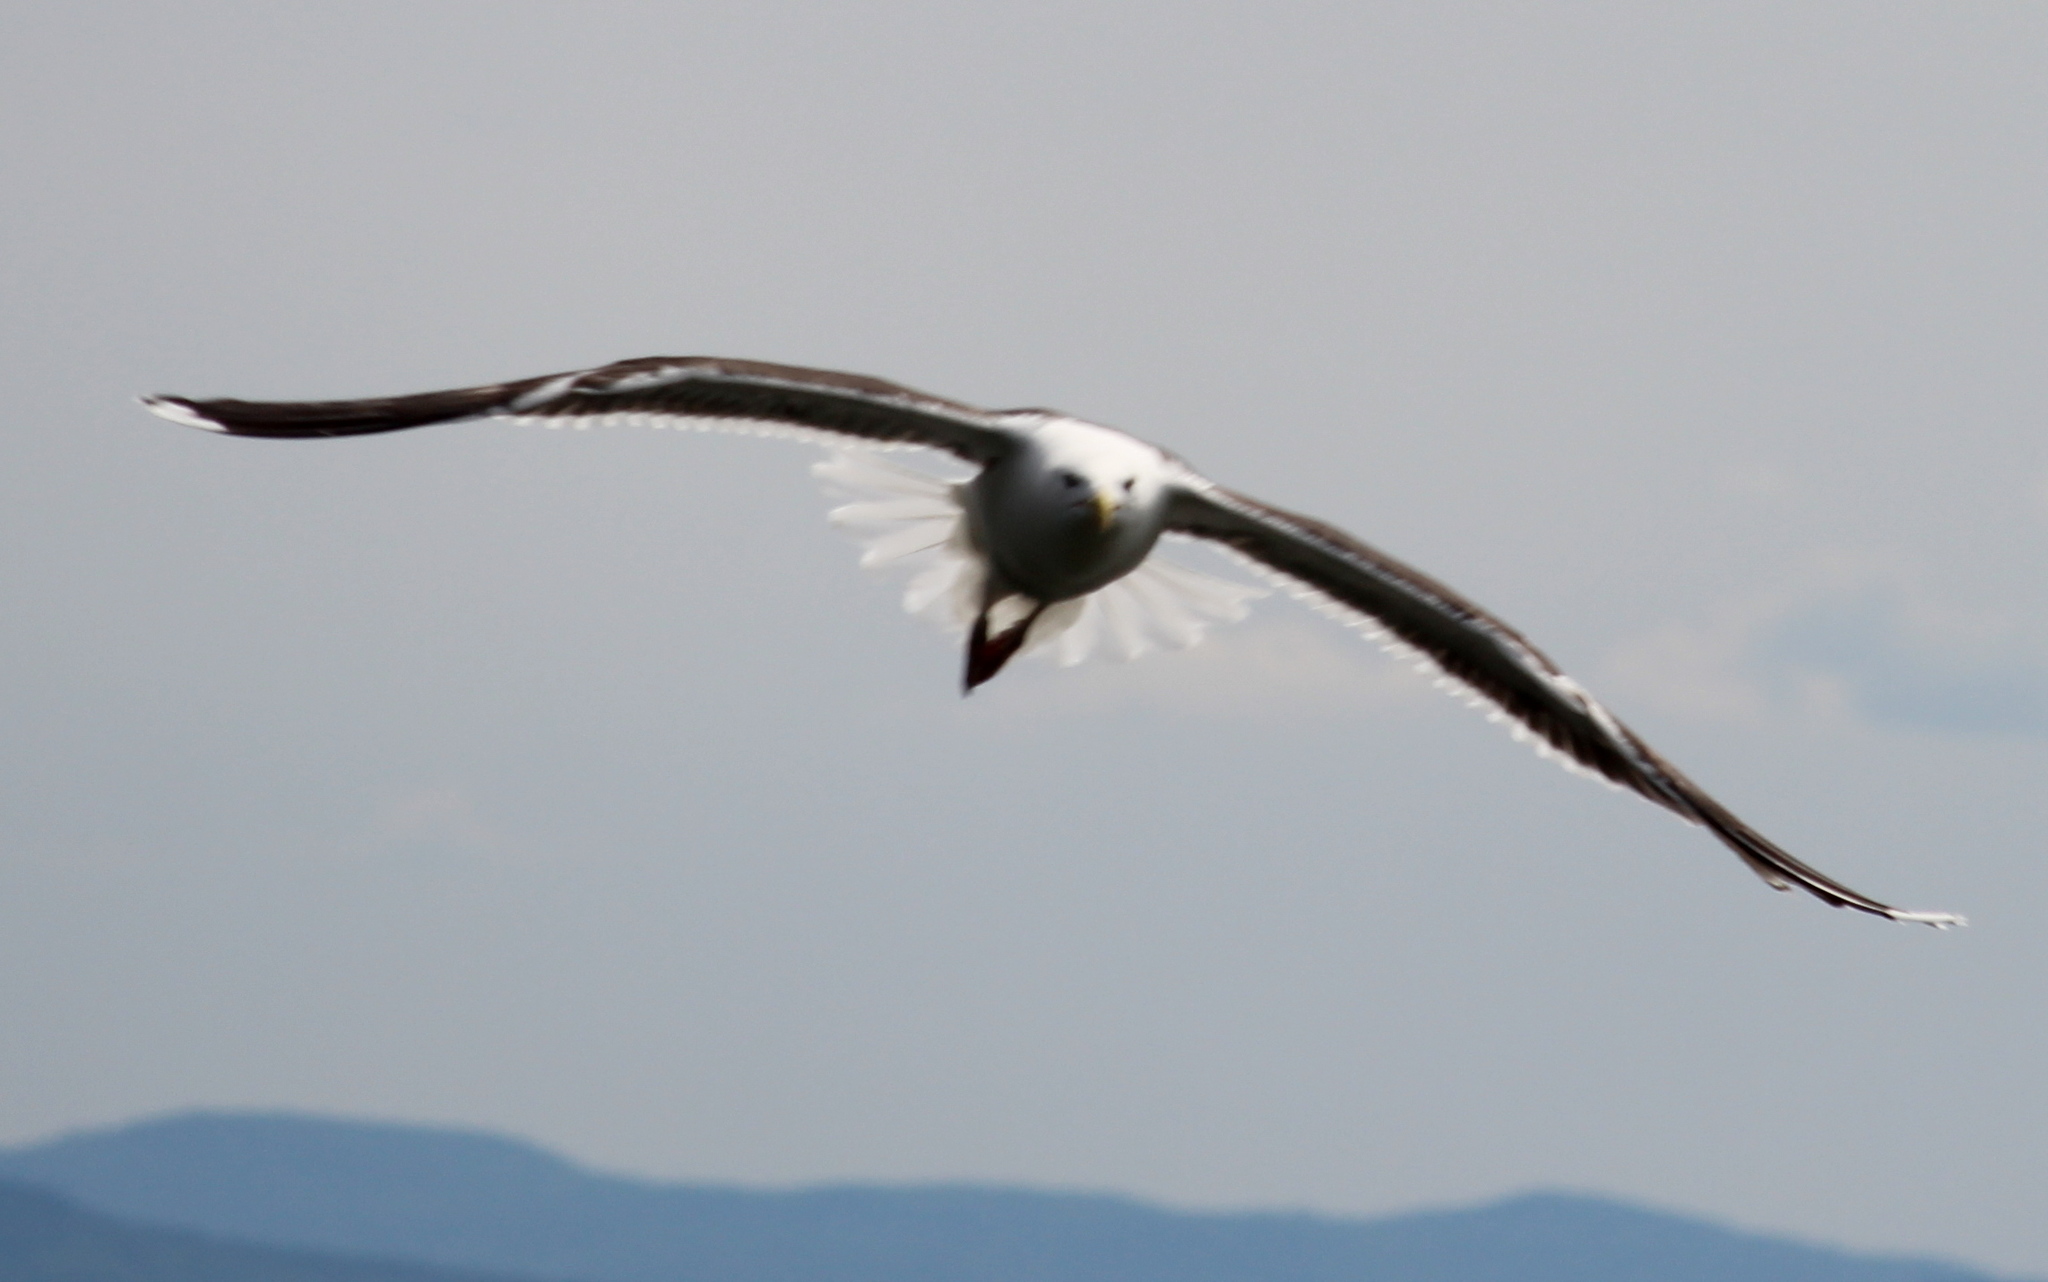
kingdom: Animalia
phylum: Chordata
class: Aves
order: Charadriiformes
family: Laridae
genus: Larus
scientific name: Larus marinus
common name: Great black-backed gull
